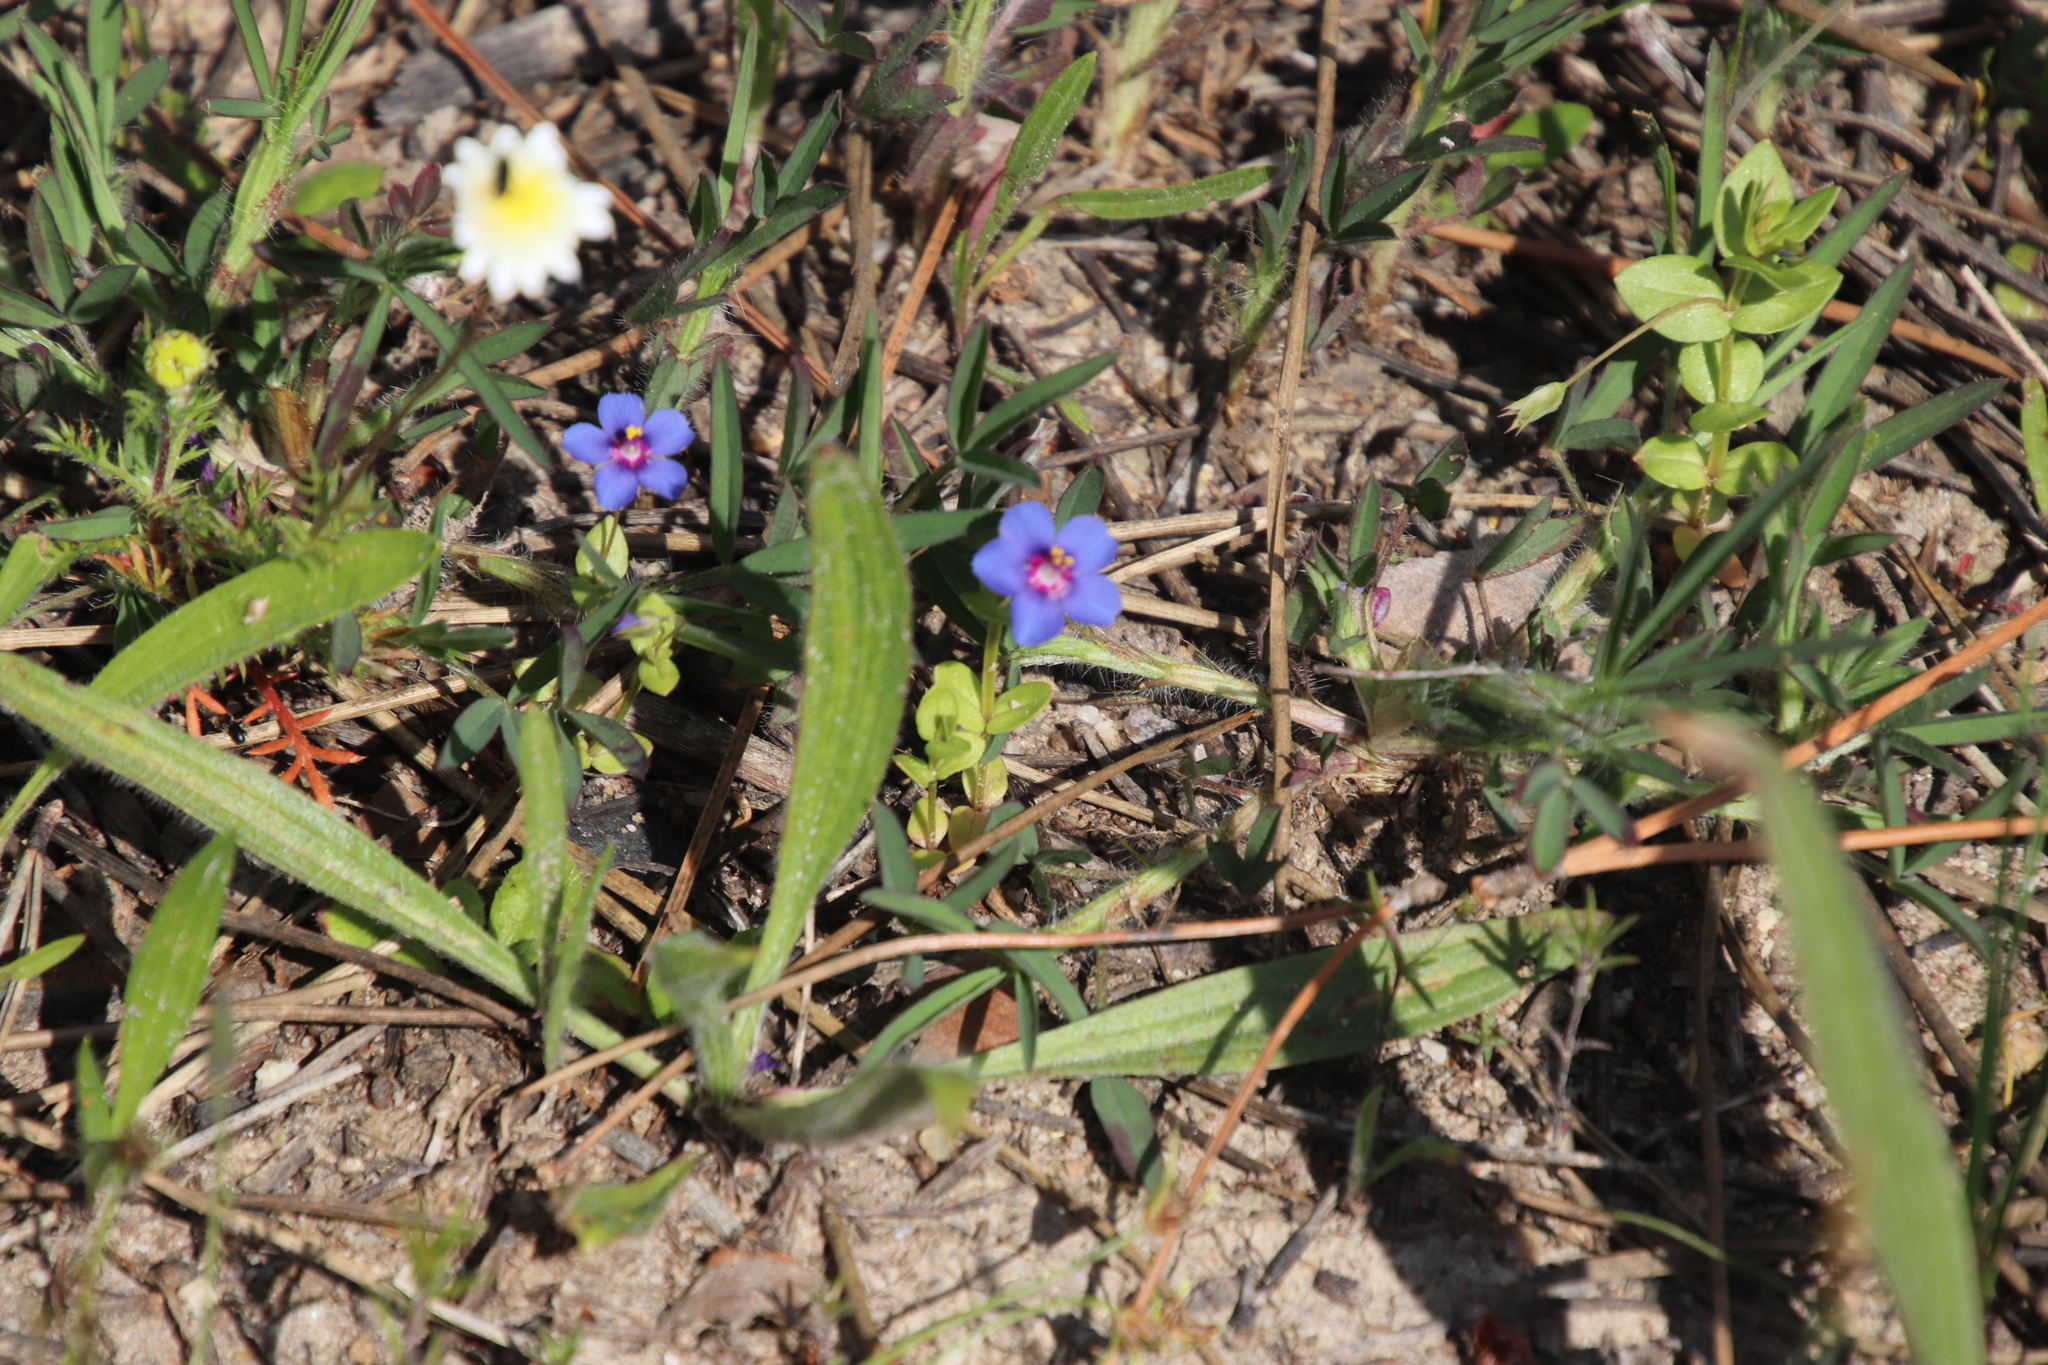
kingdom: Plantae
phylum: Tracheophyta
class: Magnoliopsida
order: Ericales
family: Primulaceae
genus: Lysimachia
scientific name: Lysimachia loeflingii
